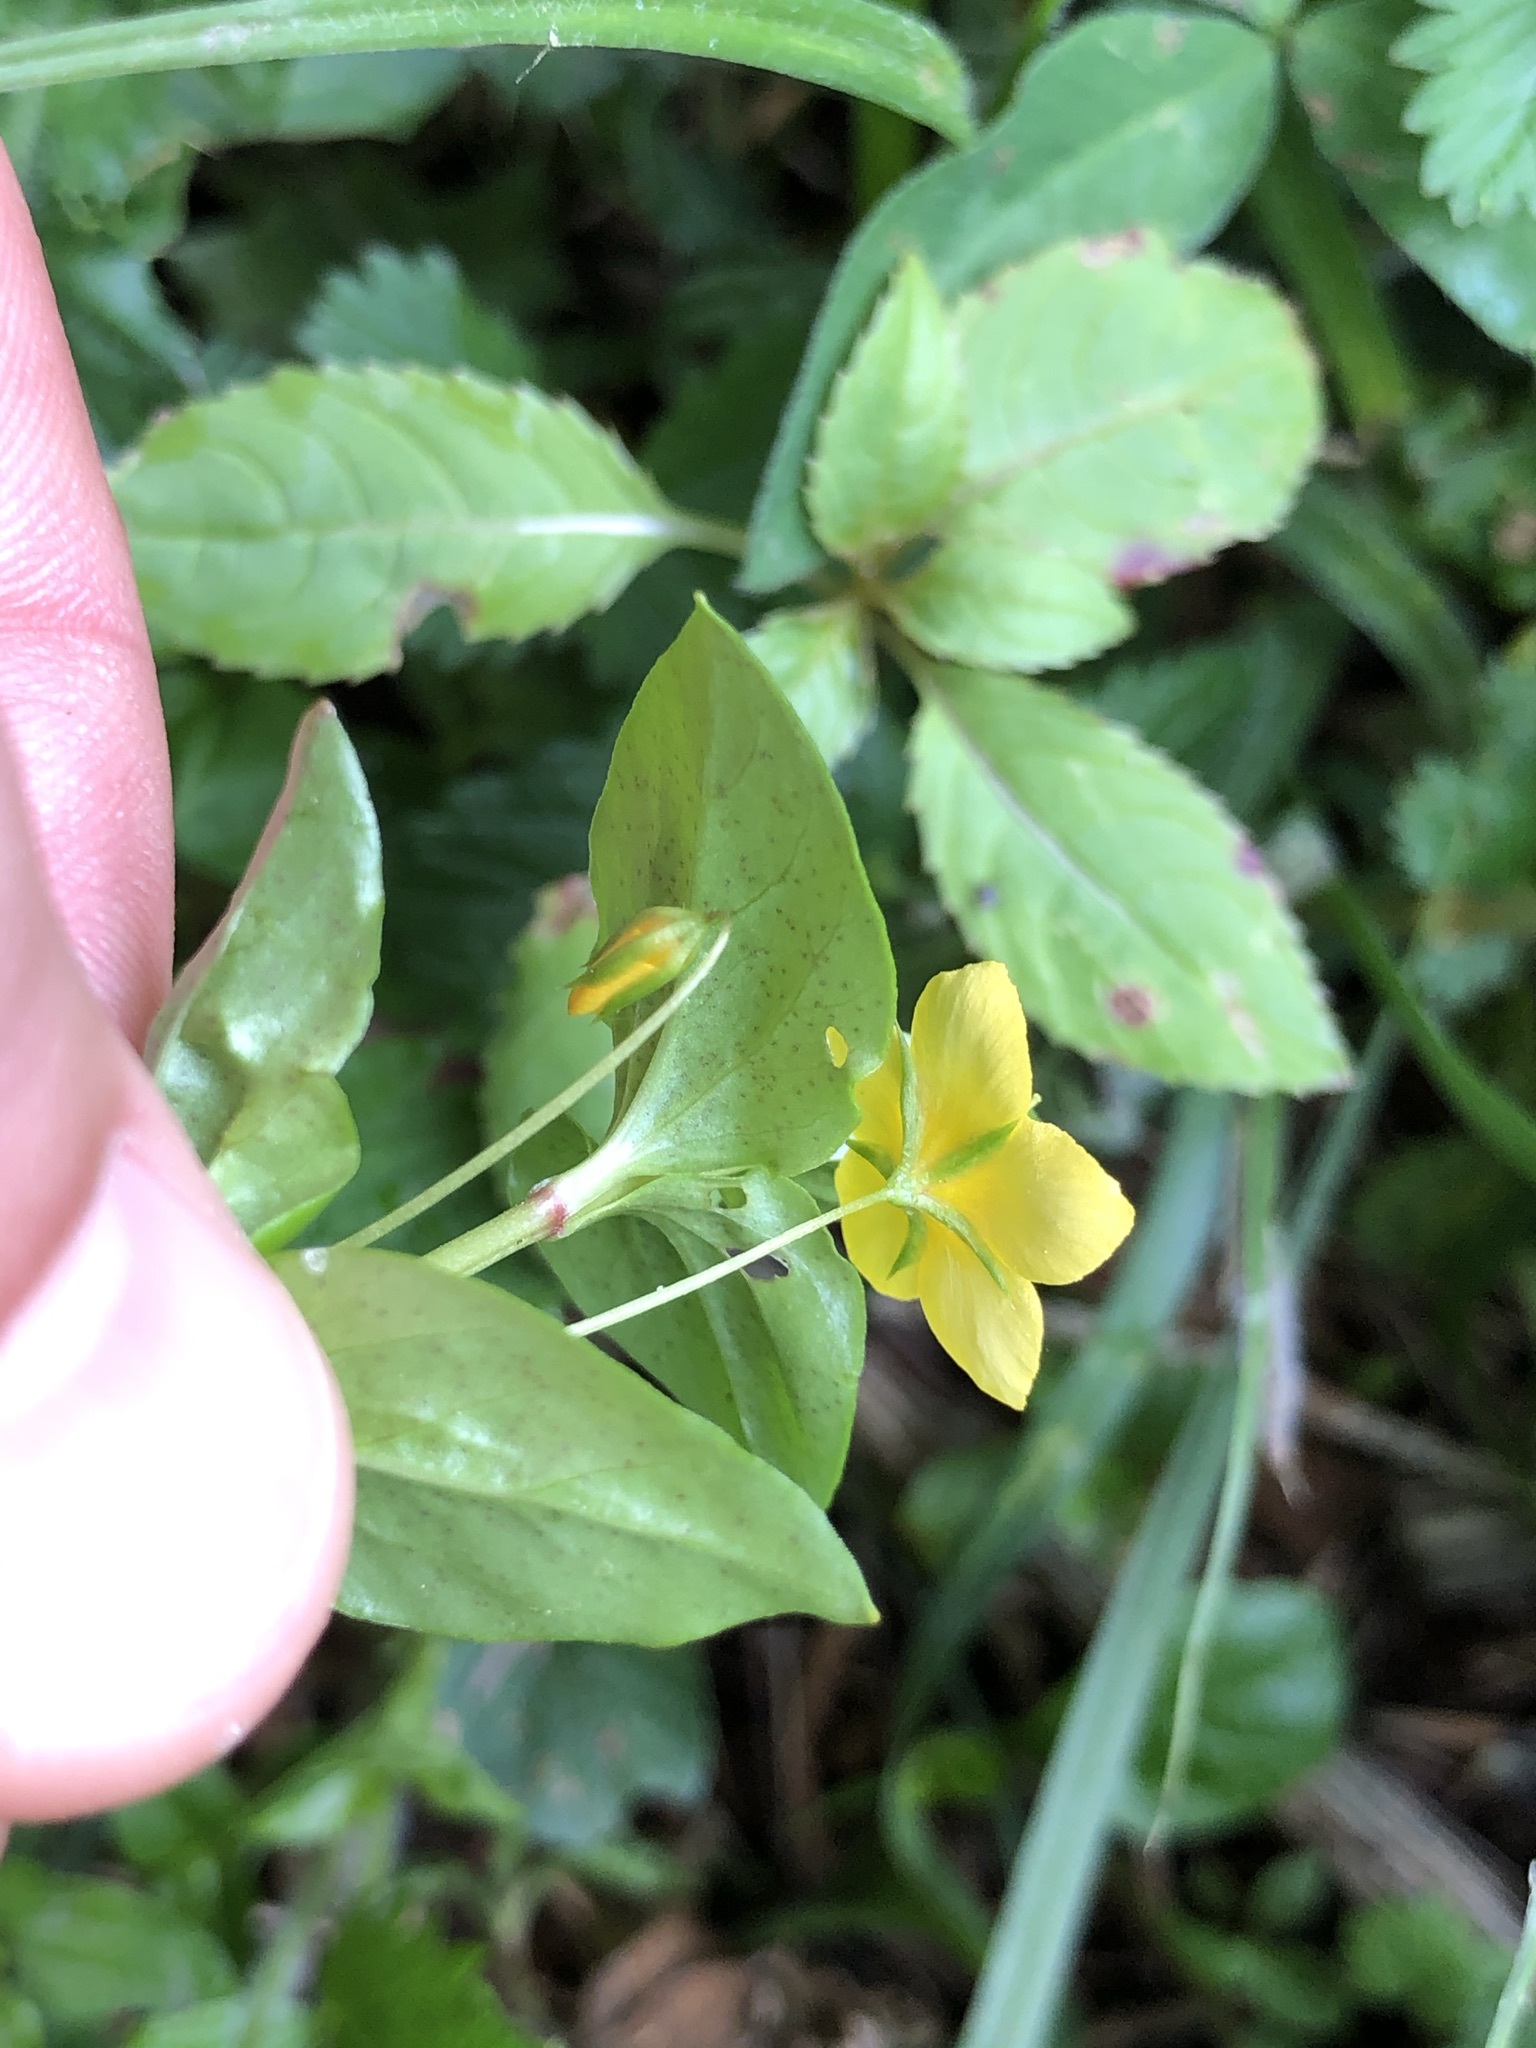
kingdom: Plantae
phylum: Tracheophyta
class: Magnoliopsida
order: Ericales
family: Primulaceae
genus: Lysimachia
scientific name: Lysimachia nemorum
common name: Yellow pimpernel
